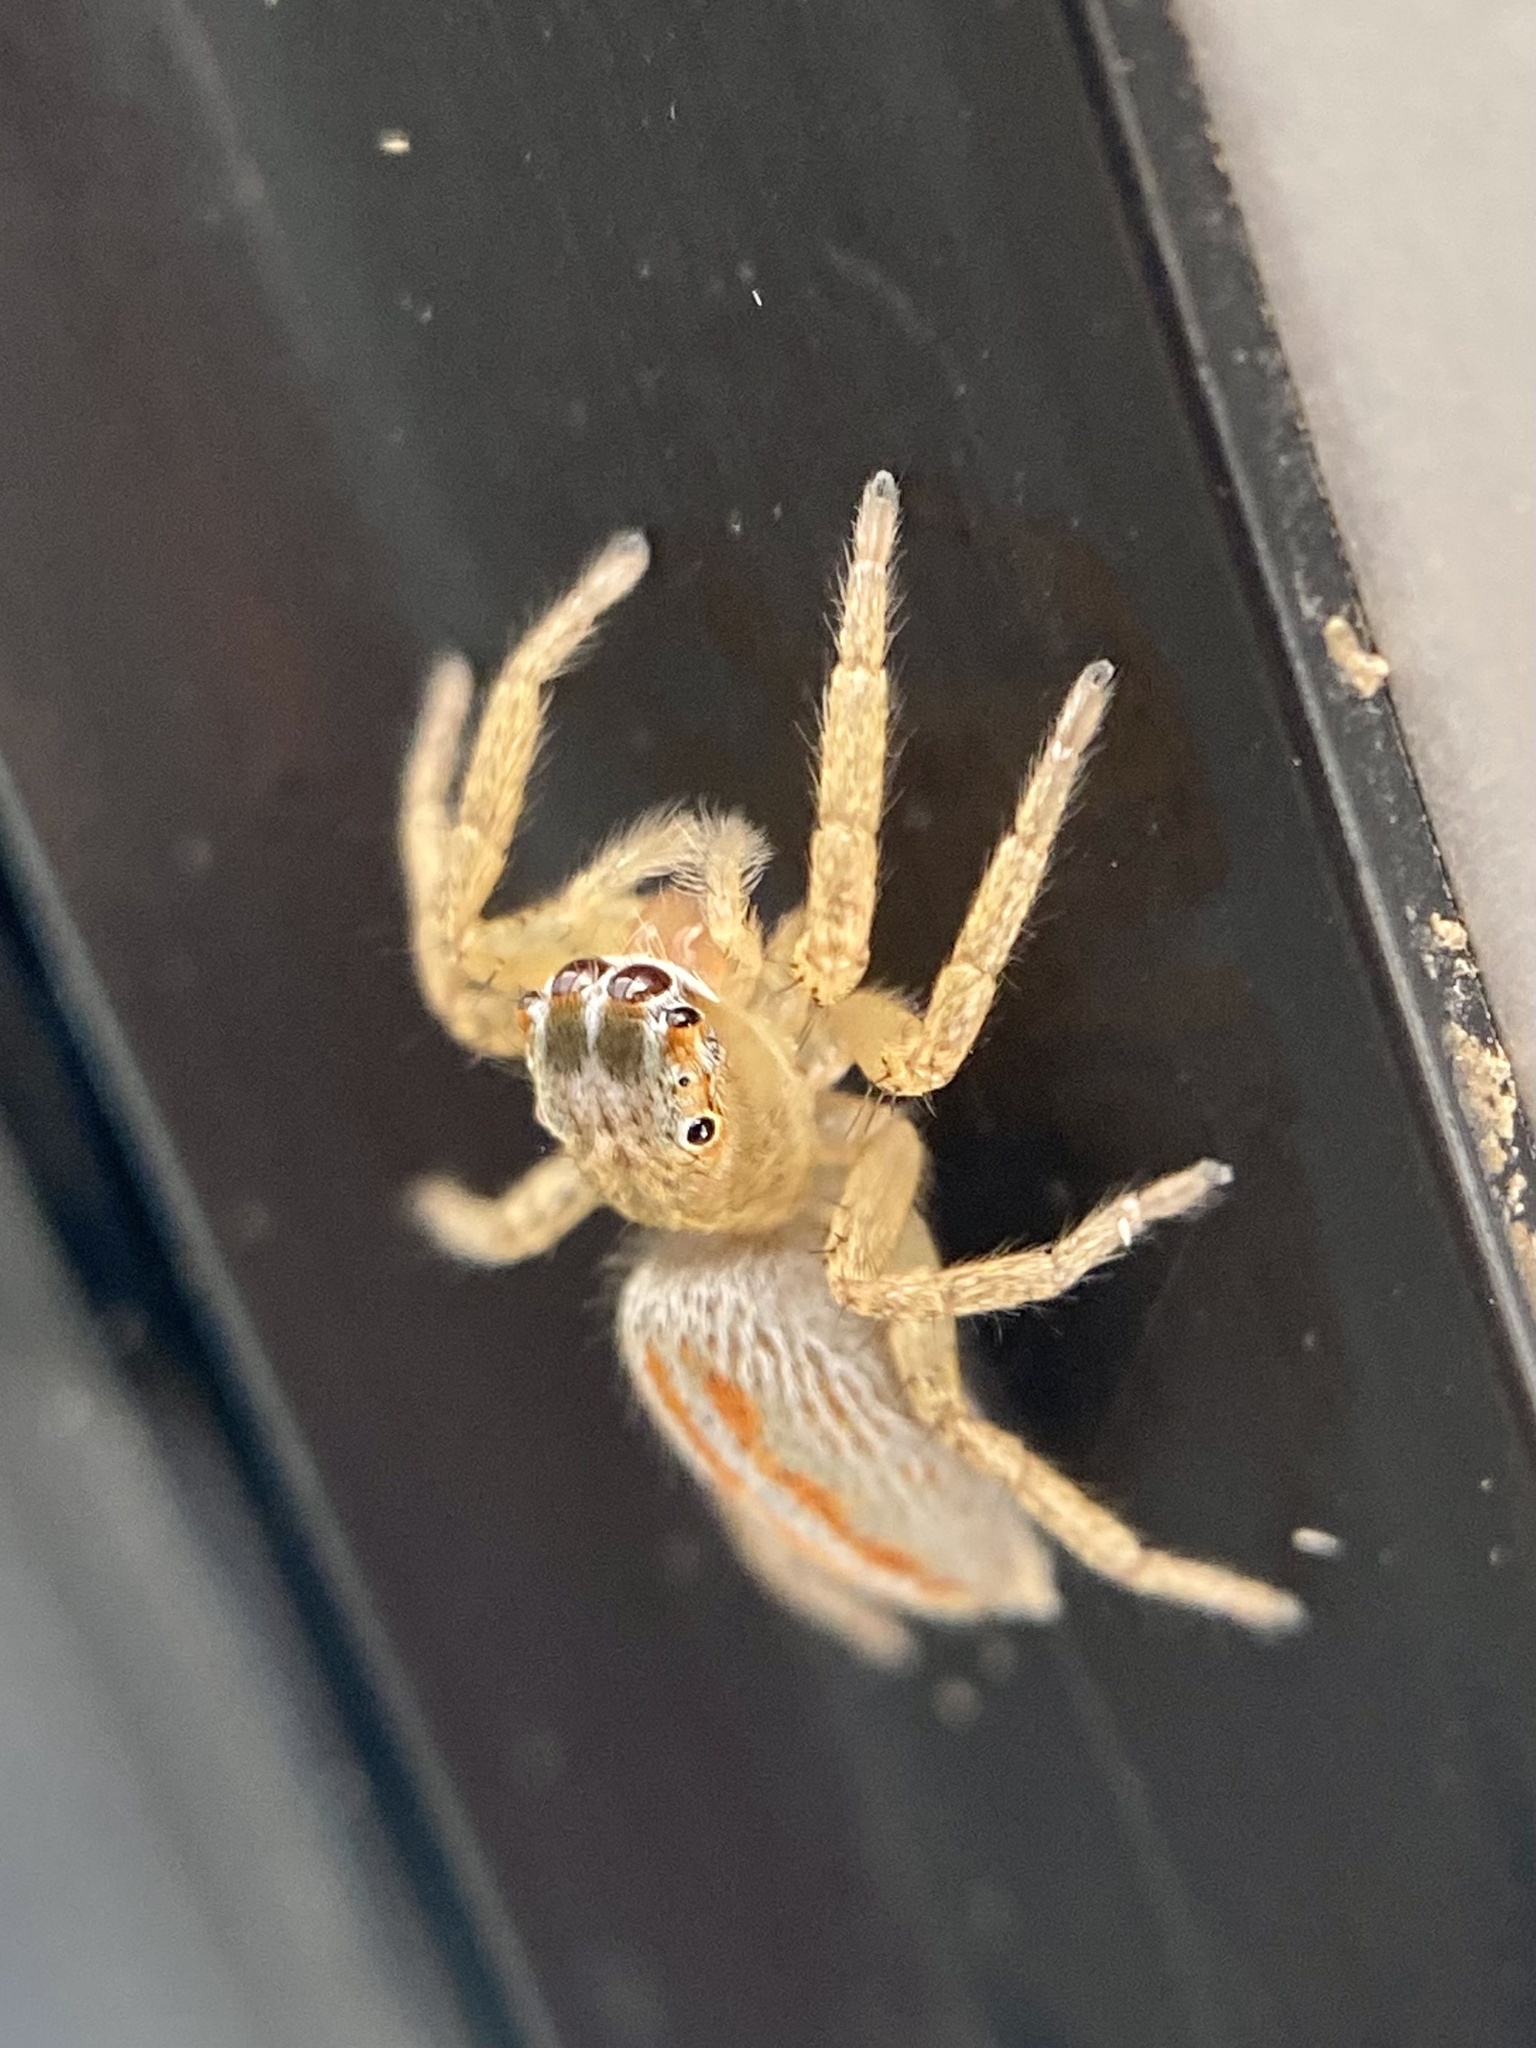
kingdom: Animalia
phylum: Arthropoda
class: Arachnida
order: Araneae
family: Salticidae
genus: Paramaevia
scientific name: Paramaevia poultoni
